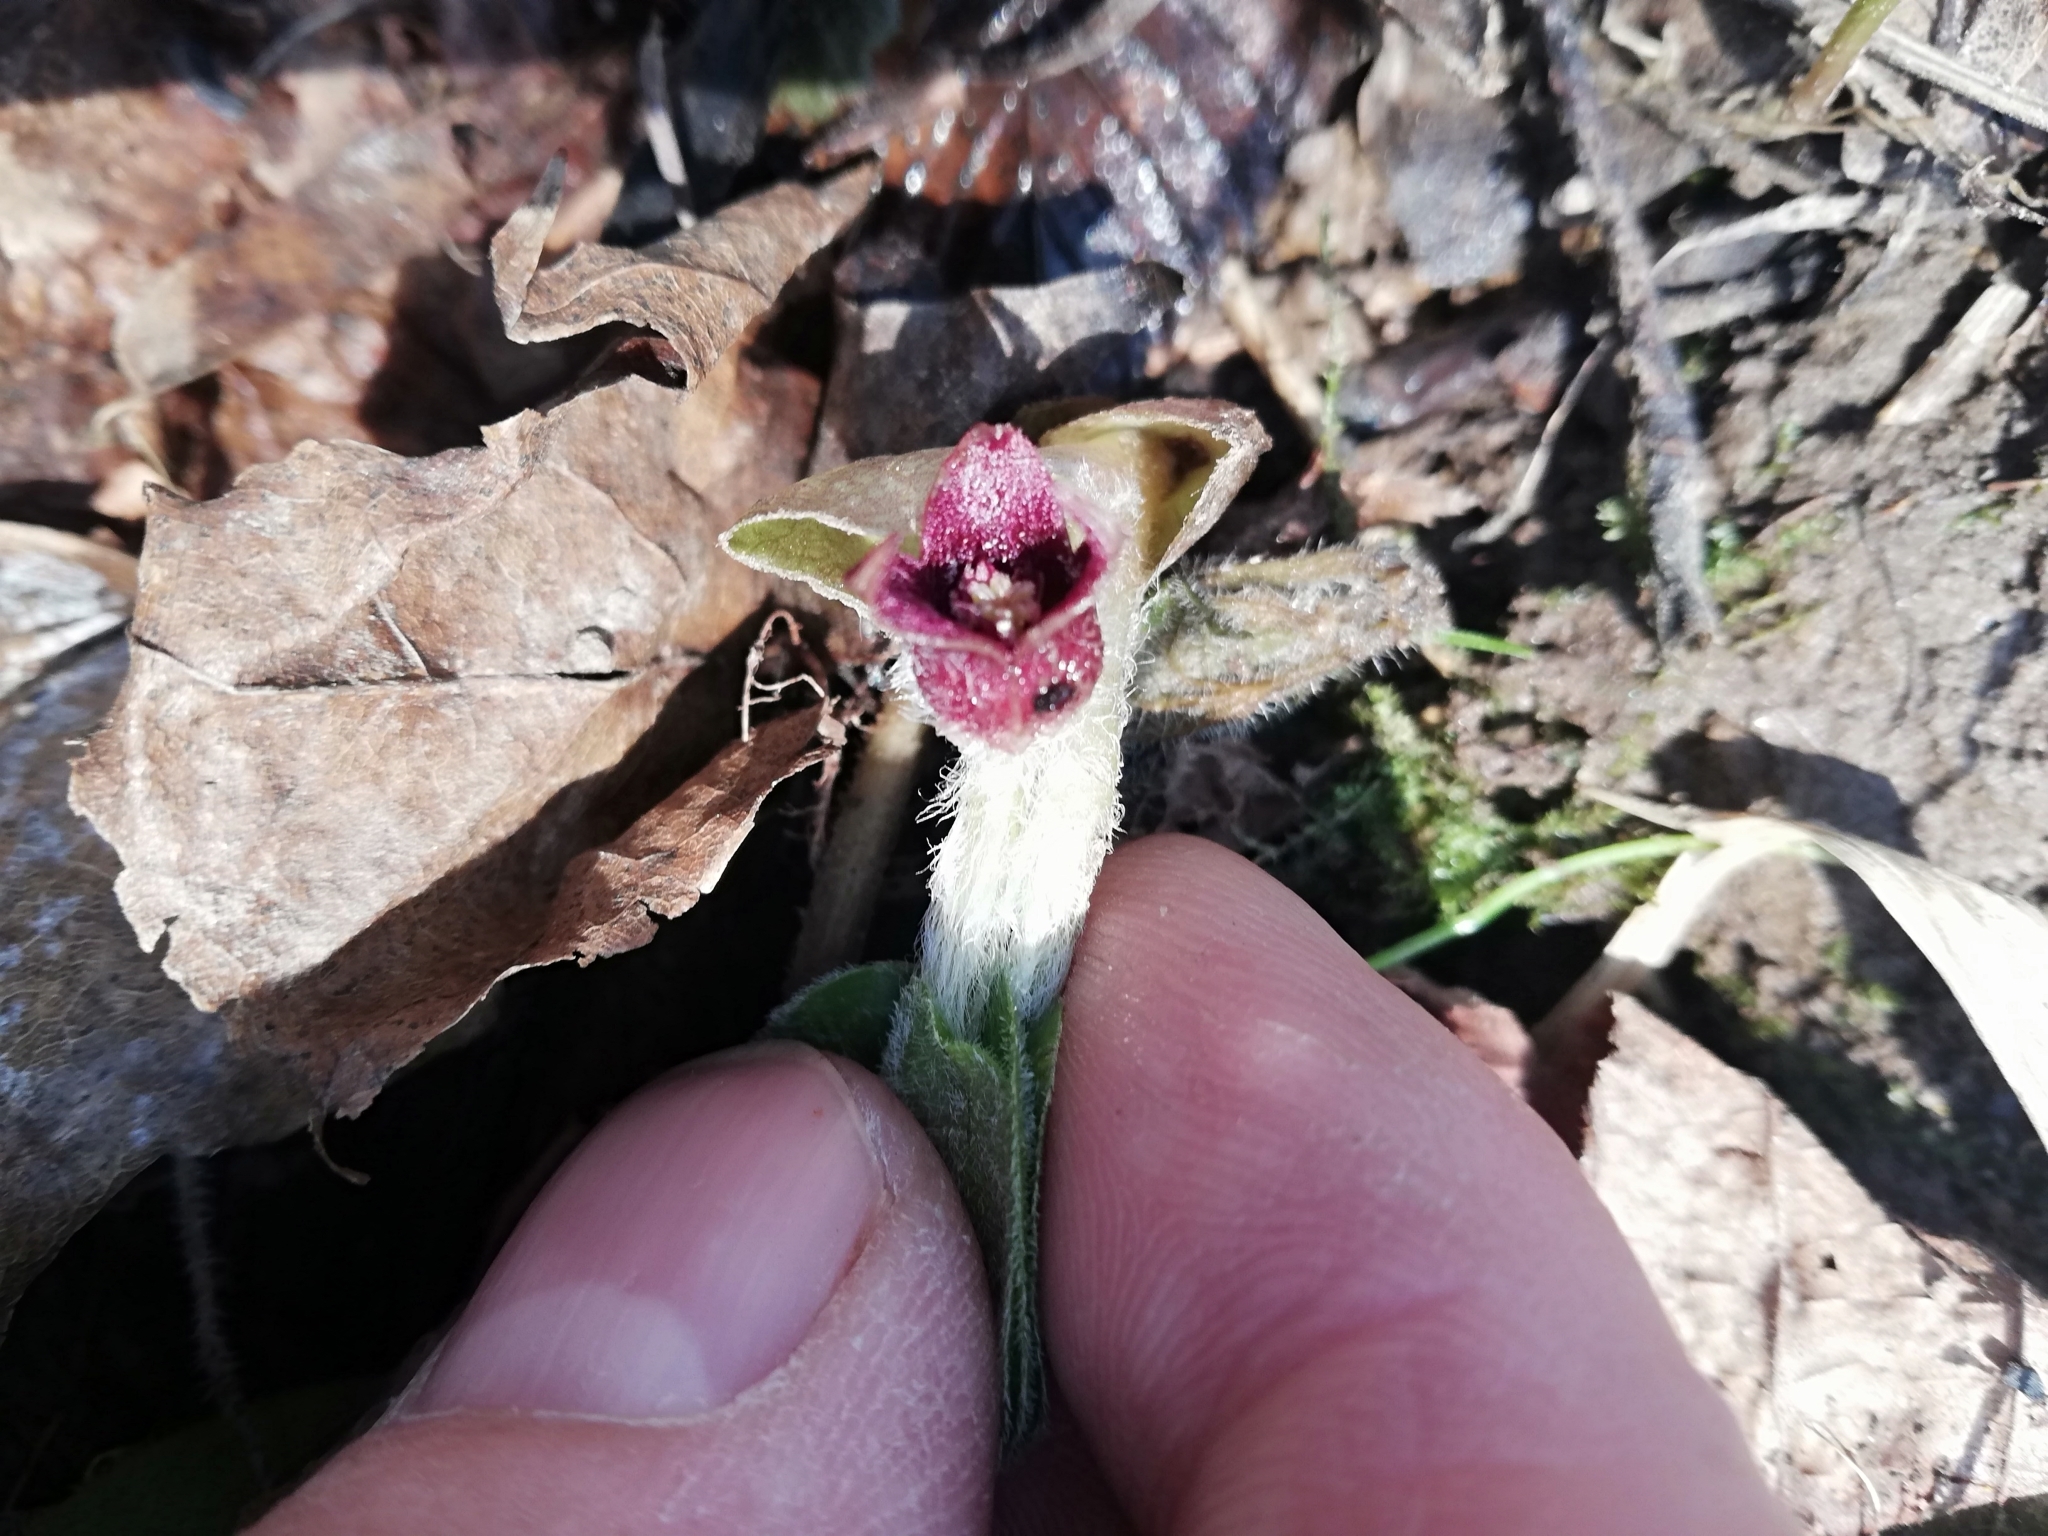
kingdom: Plantae
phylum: Tracheophyta
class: Magnoliopsida
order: Piperales
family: Aristolochiaceae
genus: Asarum
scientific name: Asarum europaeum
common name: Asarabacca
